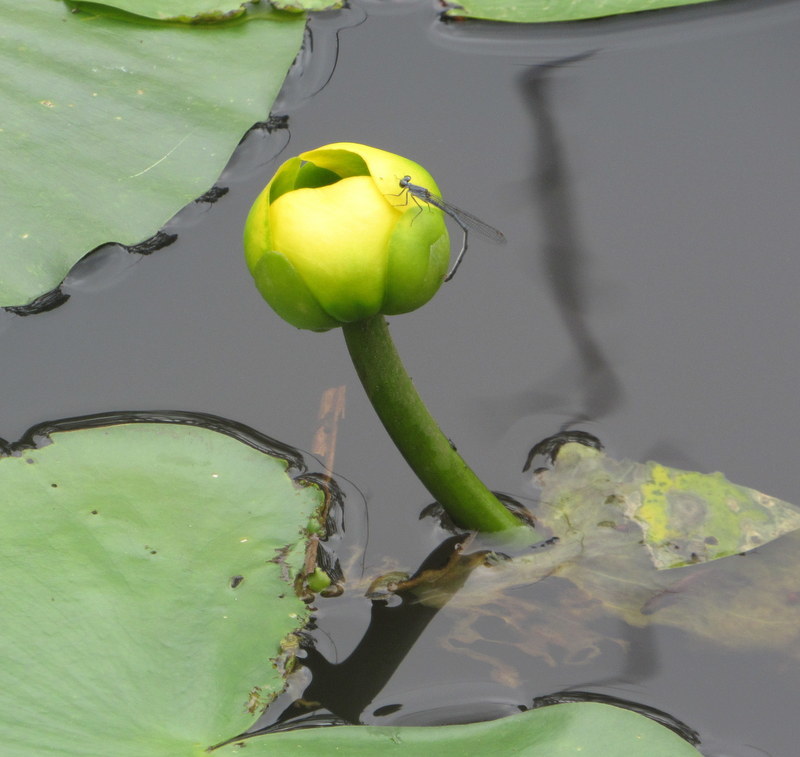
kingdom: Plantae
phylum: Tracheophyta
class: Magnoliopsida
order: Nymphaeales
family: Nymphaeaceae
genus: Nuphar
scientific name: Nuphar advena
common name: Spatter-dock
